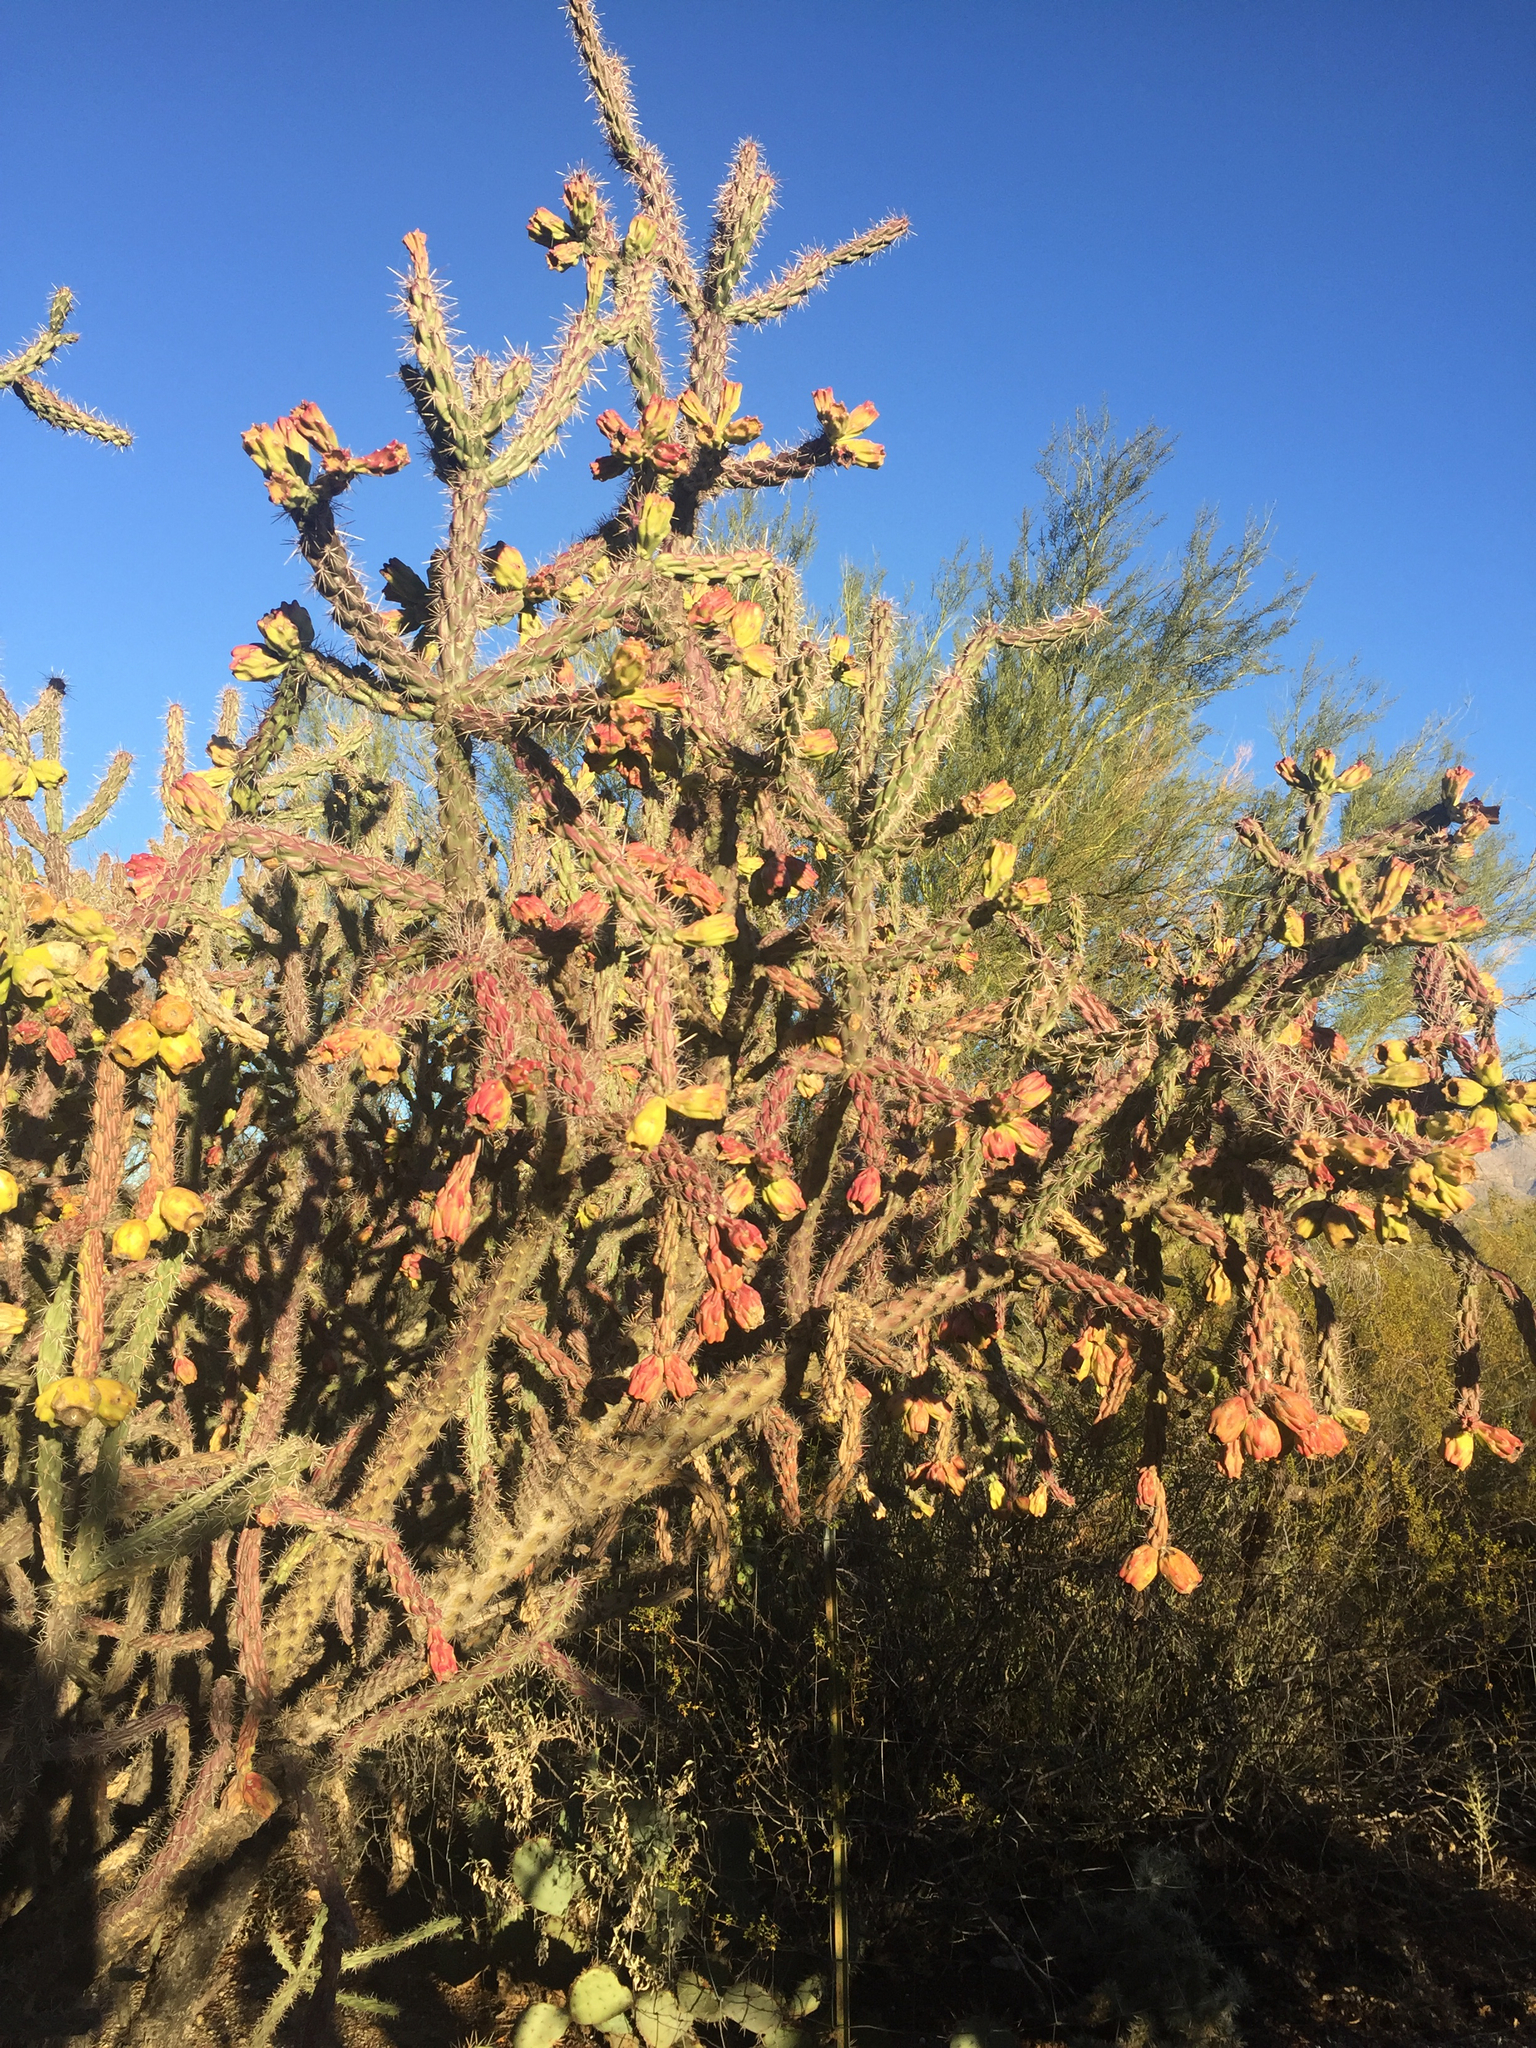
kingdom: Plantae
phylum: Tracheophyta
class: Magnoliopsida
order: Caryophyllales
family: Cactaceae
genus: Cylindropuntia
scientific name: Cylindropuntia thurberi
